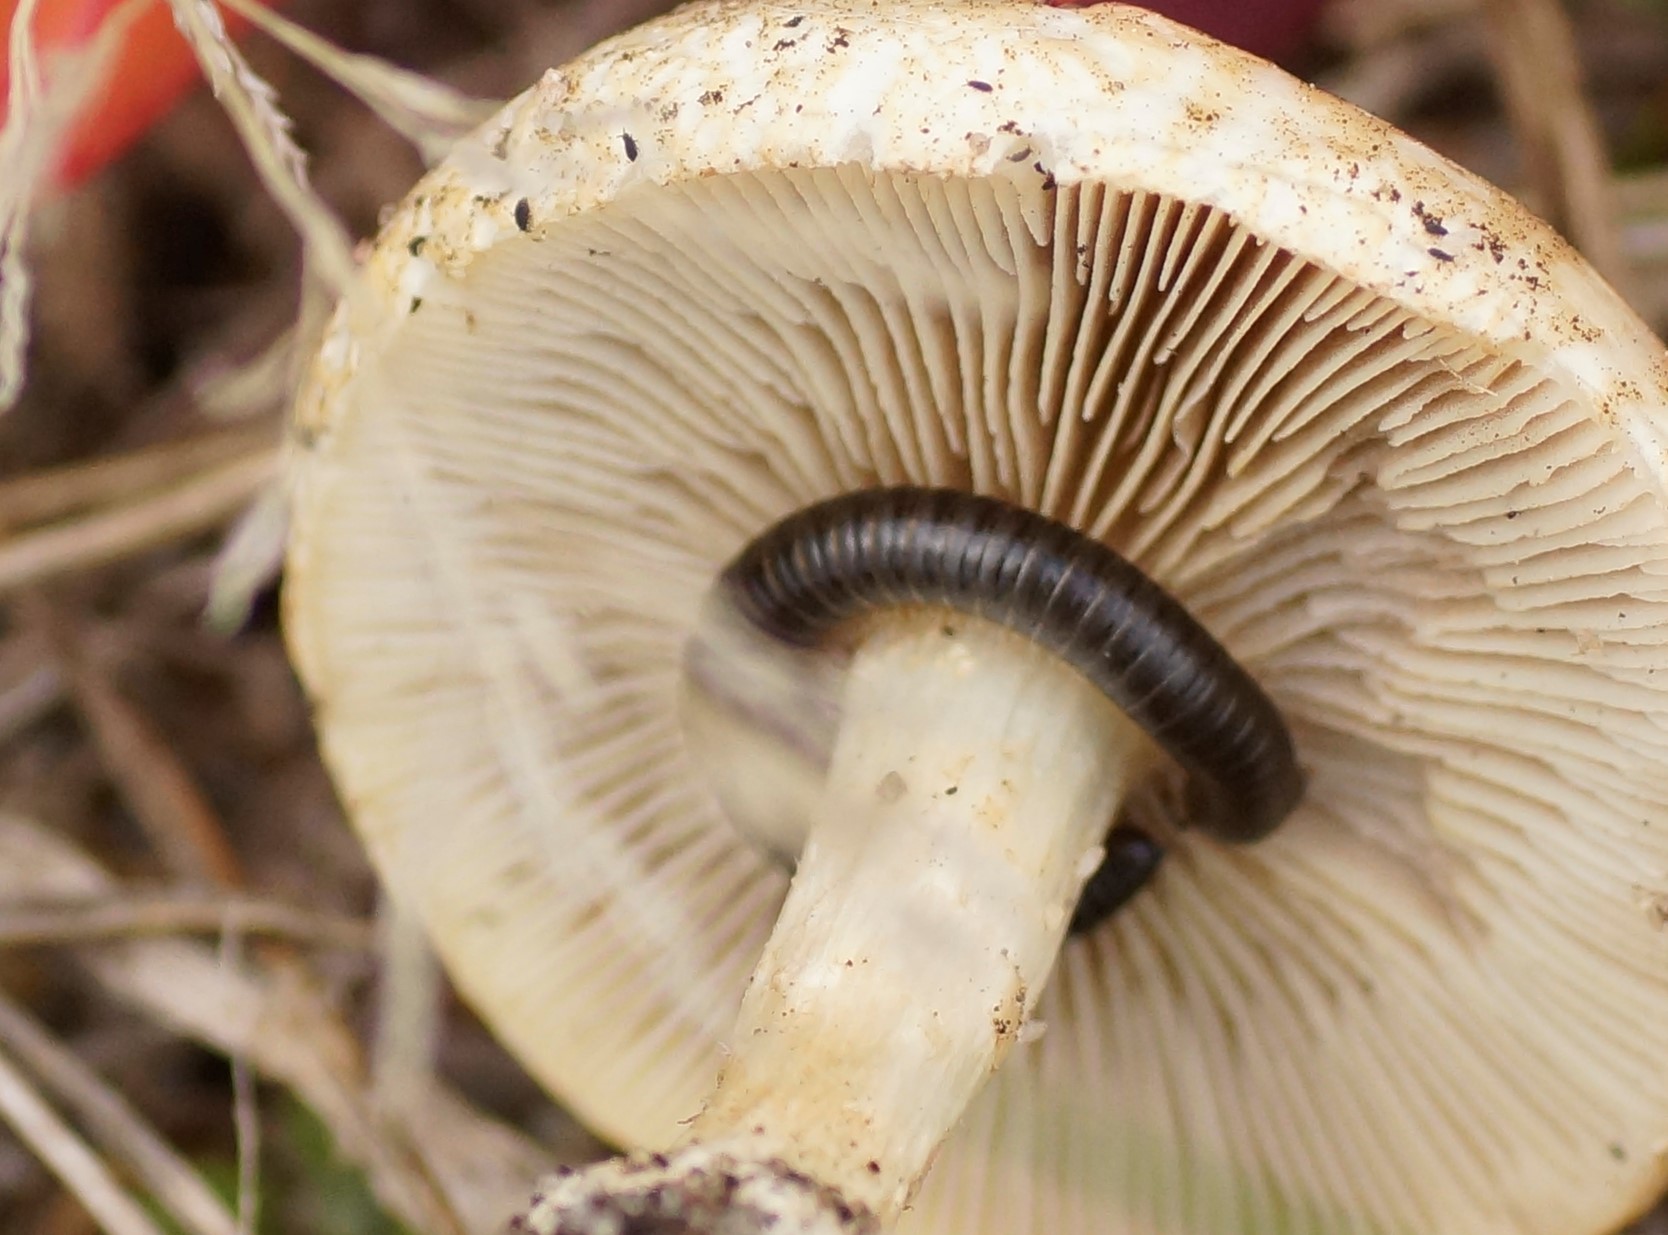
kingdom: Animalia
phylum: Arthropoda
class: Diplopoda
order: Julida
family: Julidae
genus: Ommatoiulus
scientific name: Ommatoiulus moreleti
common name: Portuguese millipede
